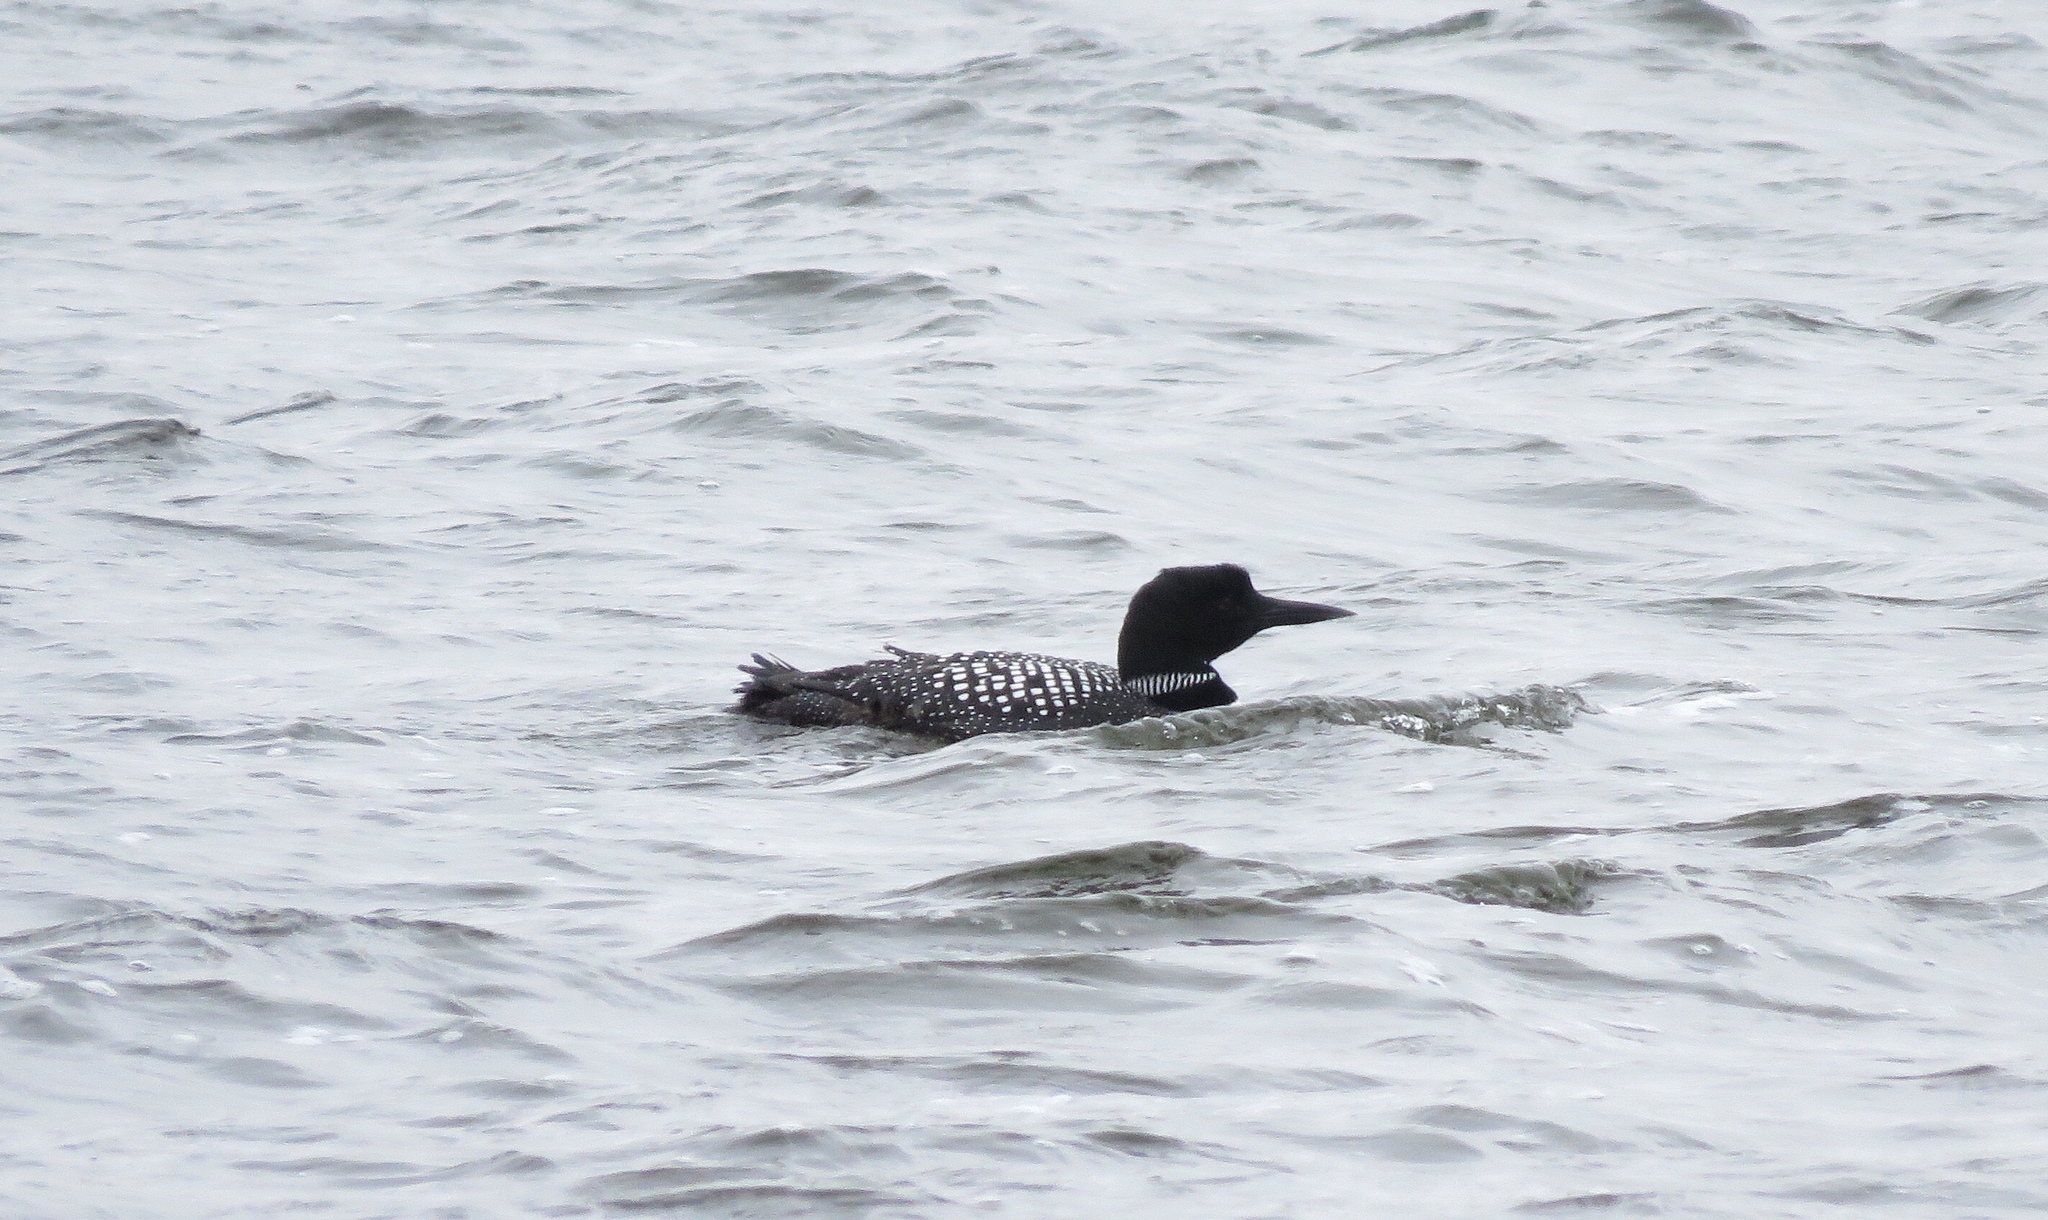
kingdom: Animalia
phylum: Chordata
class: Aves
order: Gaviiformes
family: Gaviidae
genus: Gavia
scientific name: Gavia immer
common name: Common loon
